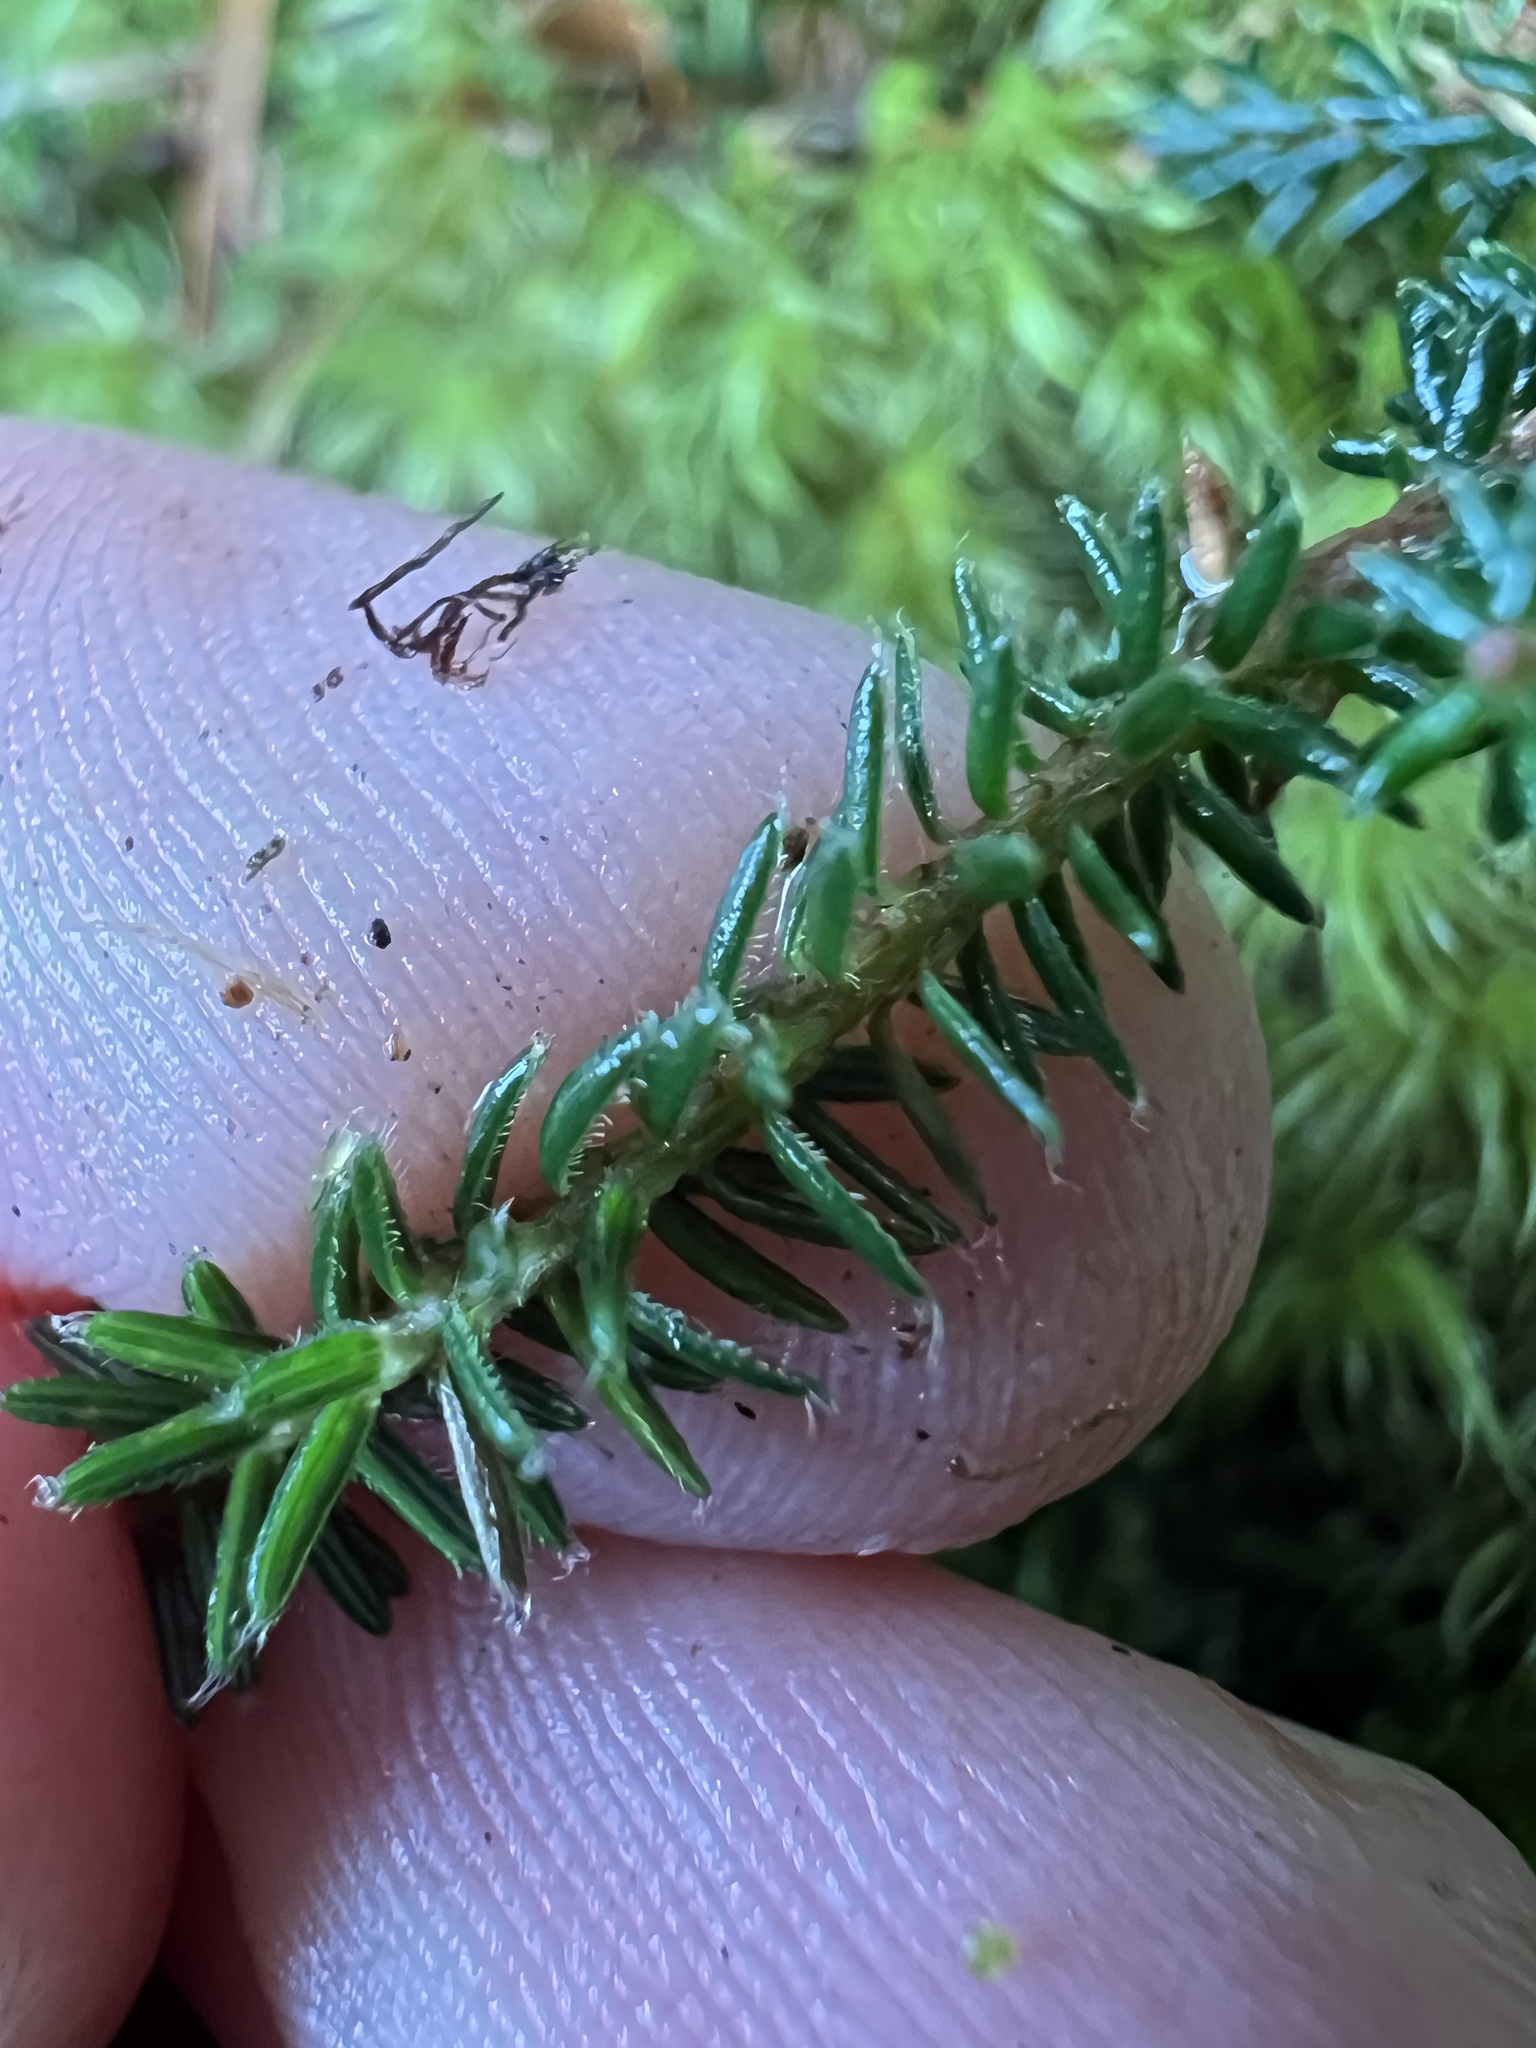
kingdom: Plantae
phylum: Tracheophyta
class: Magnoliopsida
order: Ericales
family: Ericaceae
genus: Androstoma
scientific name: Androstoma empetrifolia
